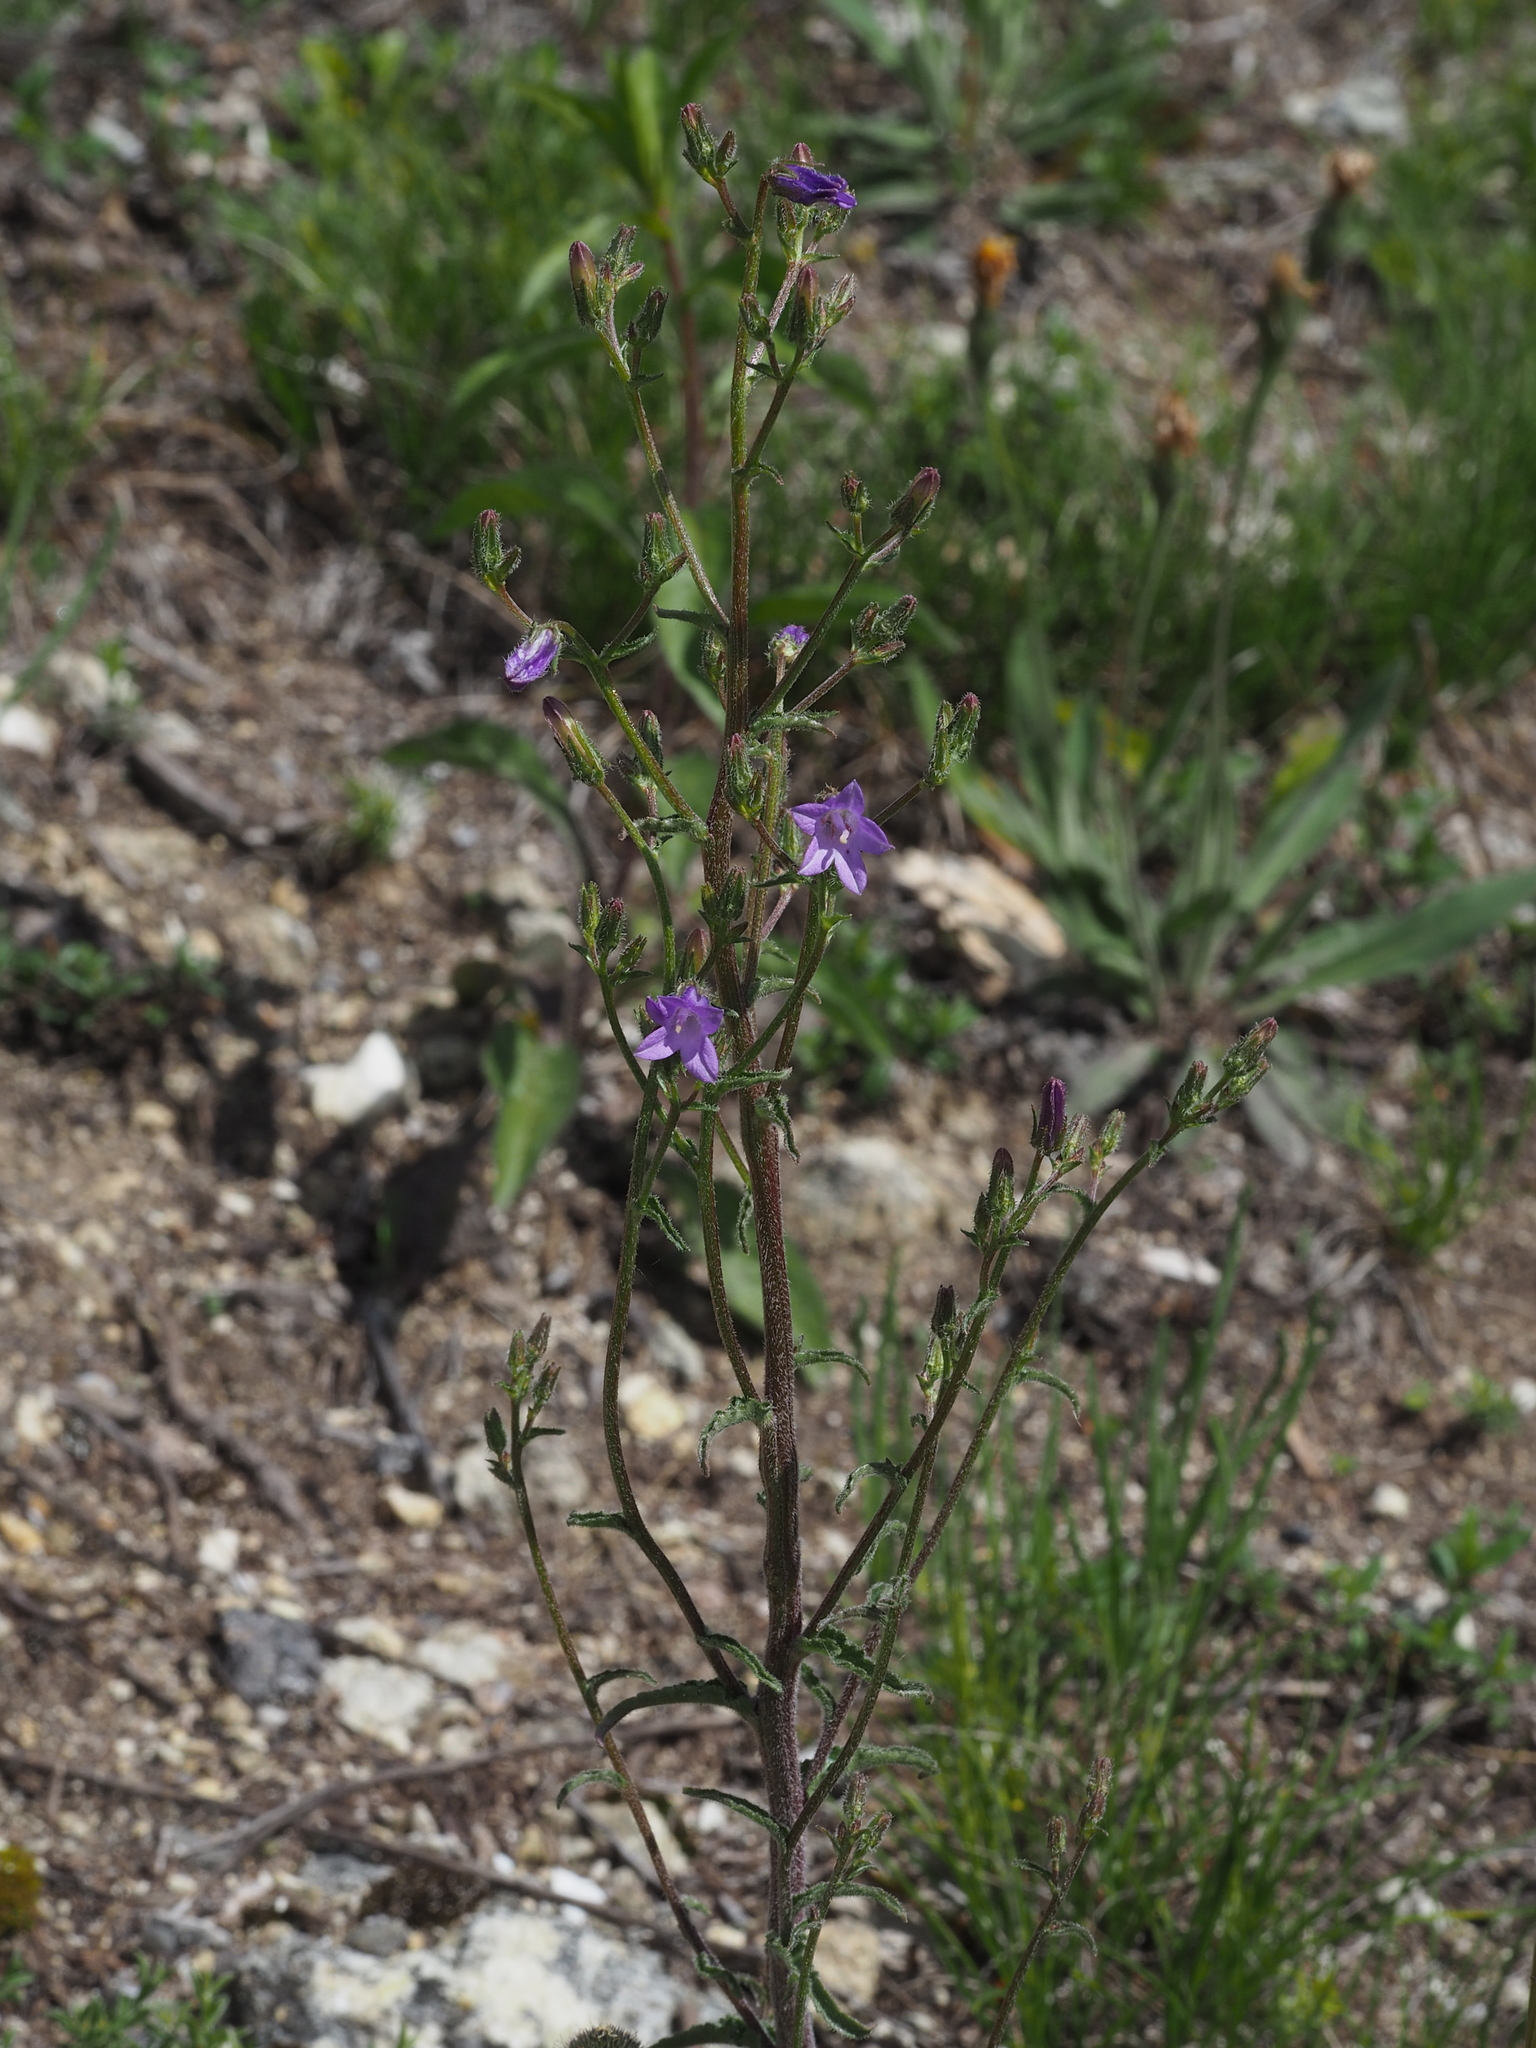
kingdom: Plantae
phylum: Tracheophyta
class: Magnoliopsida
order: Asterales
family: Campanulaceae
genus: Campanula
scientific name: Campanula sibirica
